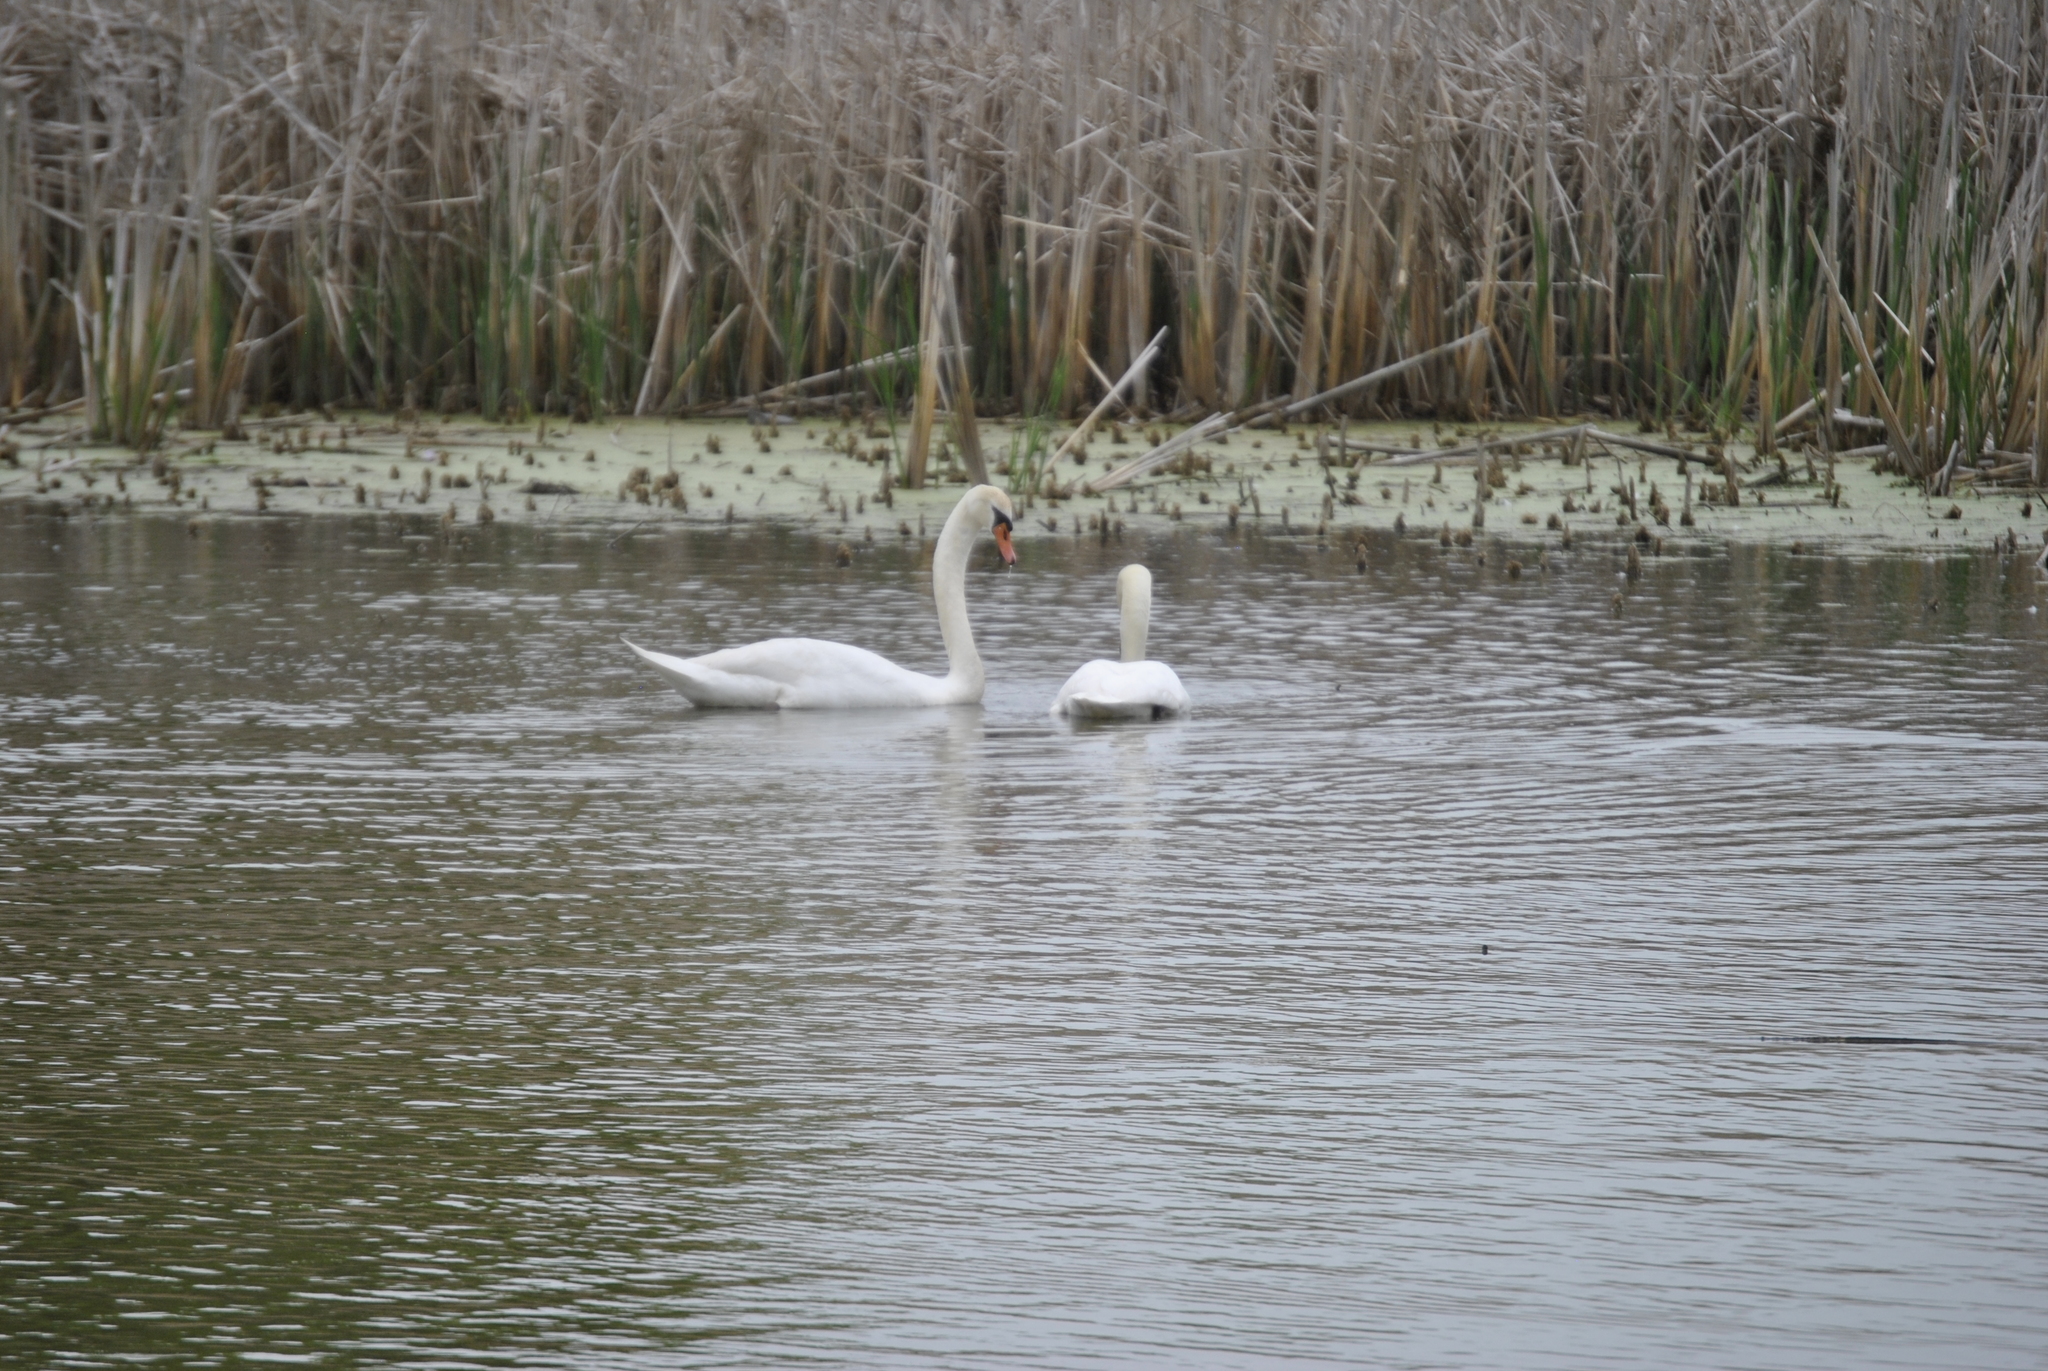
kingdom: Animalia
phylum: Chordata
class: Aves
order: Anseriformes
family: Anatidae
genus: Cygnus
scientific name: Cygnus olor
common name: Mute swan
